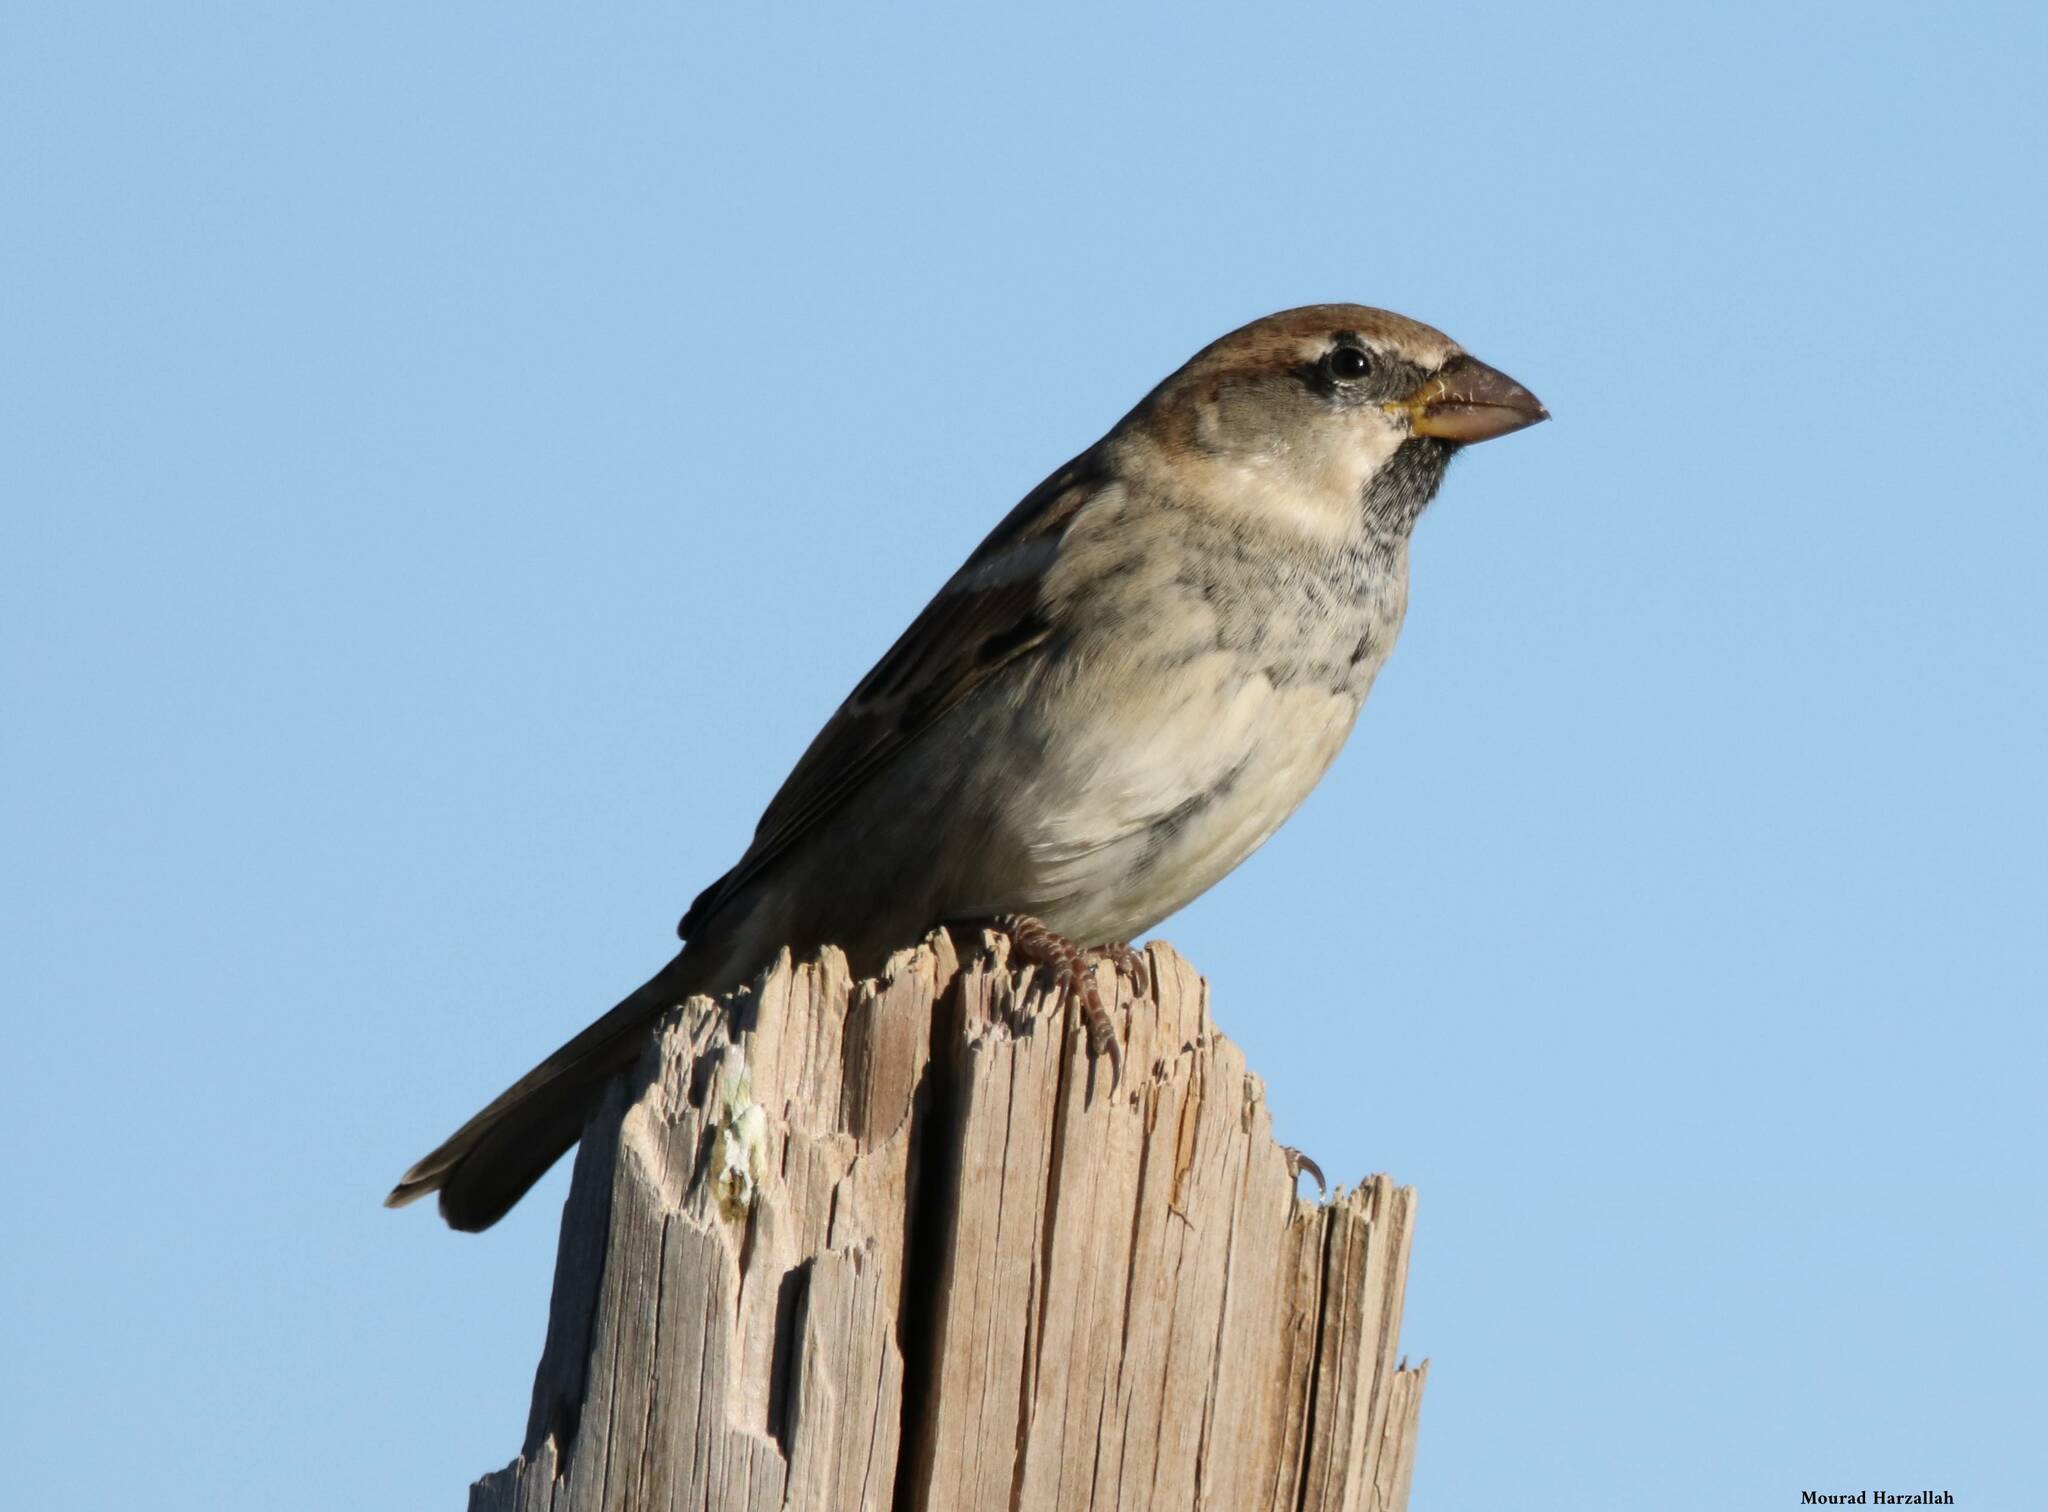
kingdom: Animalia
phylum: Chordata
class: Aves
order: Passeriformes
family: Passeridae
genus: Passer
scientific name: Passer hispaniolensis
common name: Spanish sparrow
